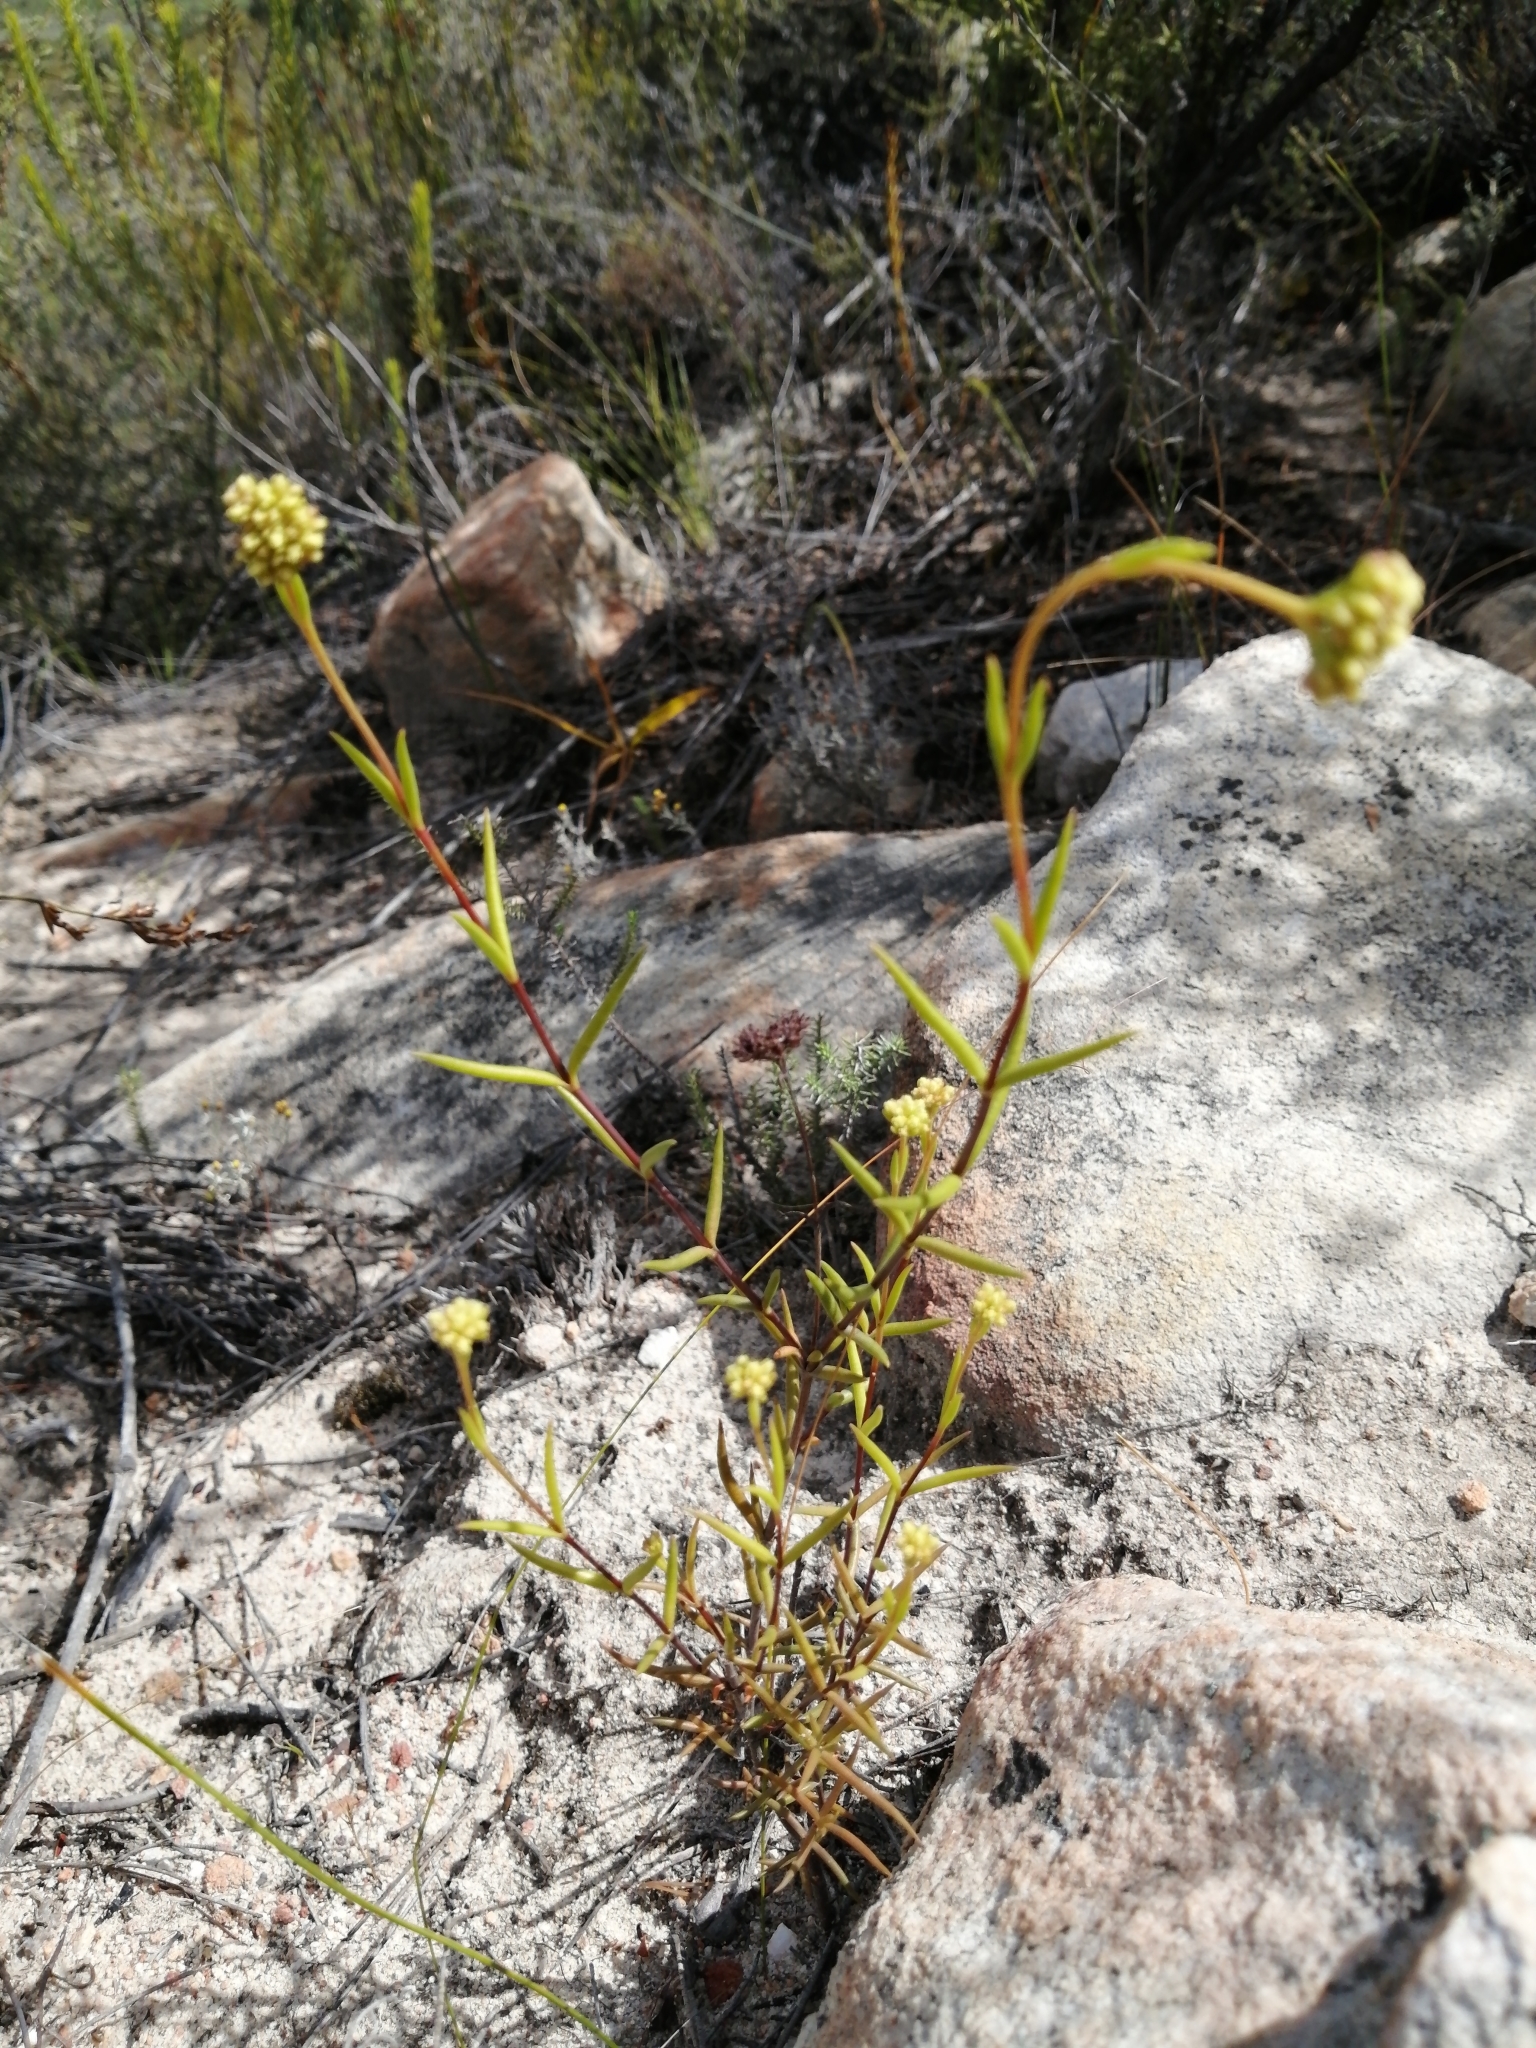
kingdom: Plantae
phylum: Tracheophyta
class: Magnoliopsida
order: Saxifragales
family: Crassulaceae
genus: Crassula
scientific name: Crassula subulata
